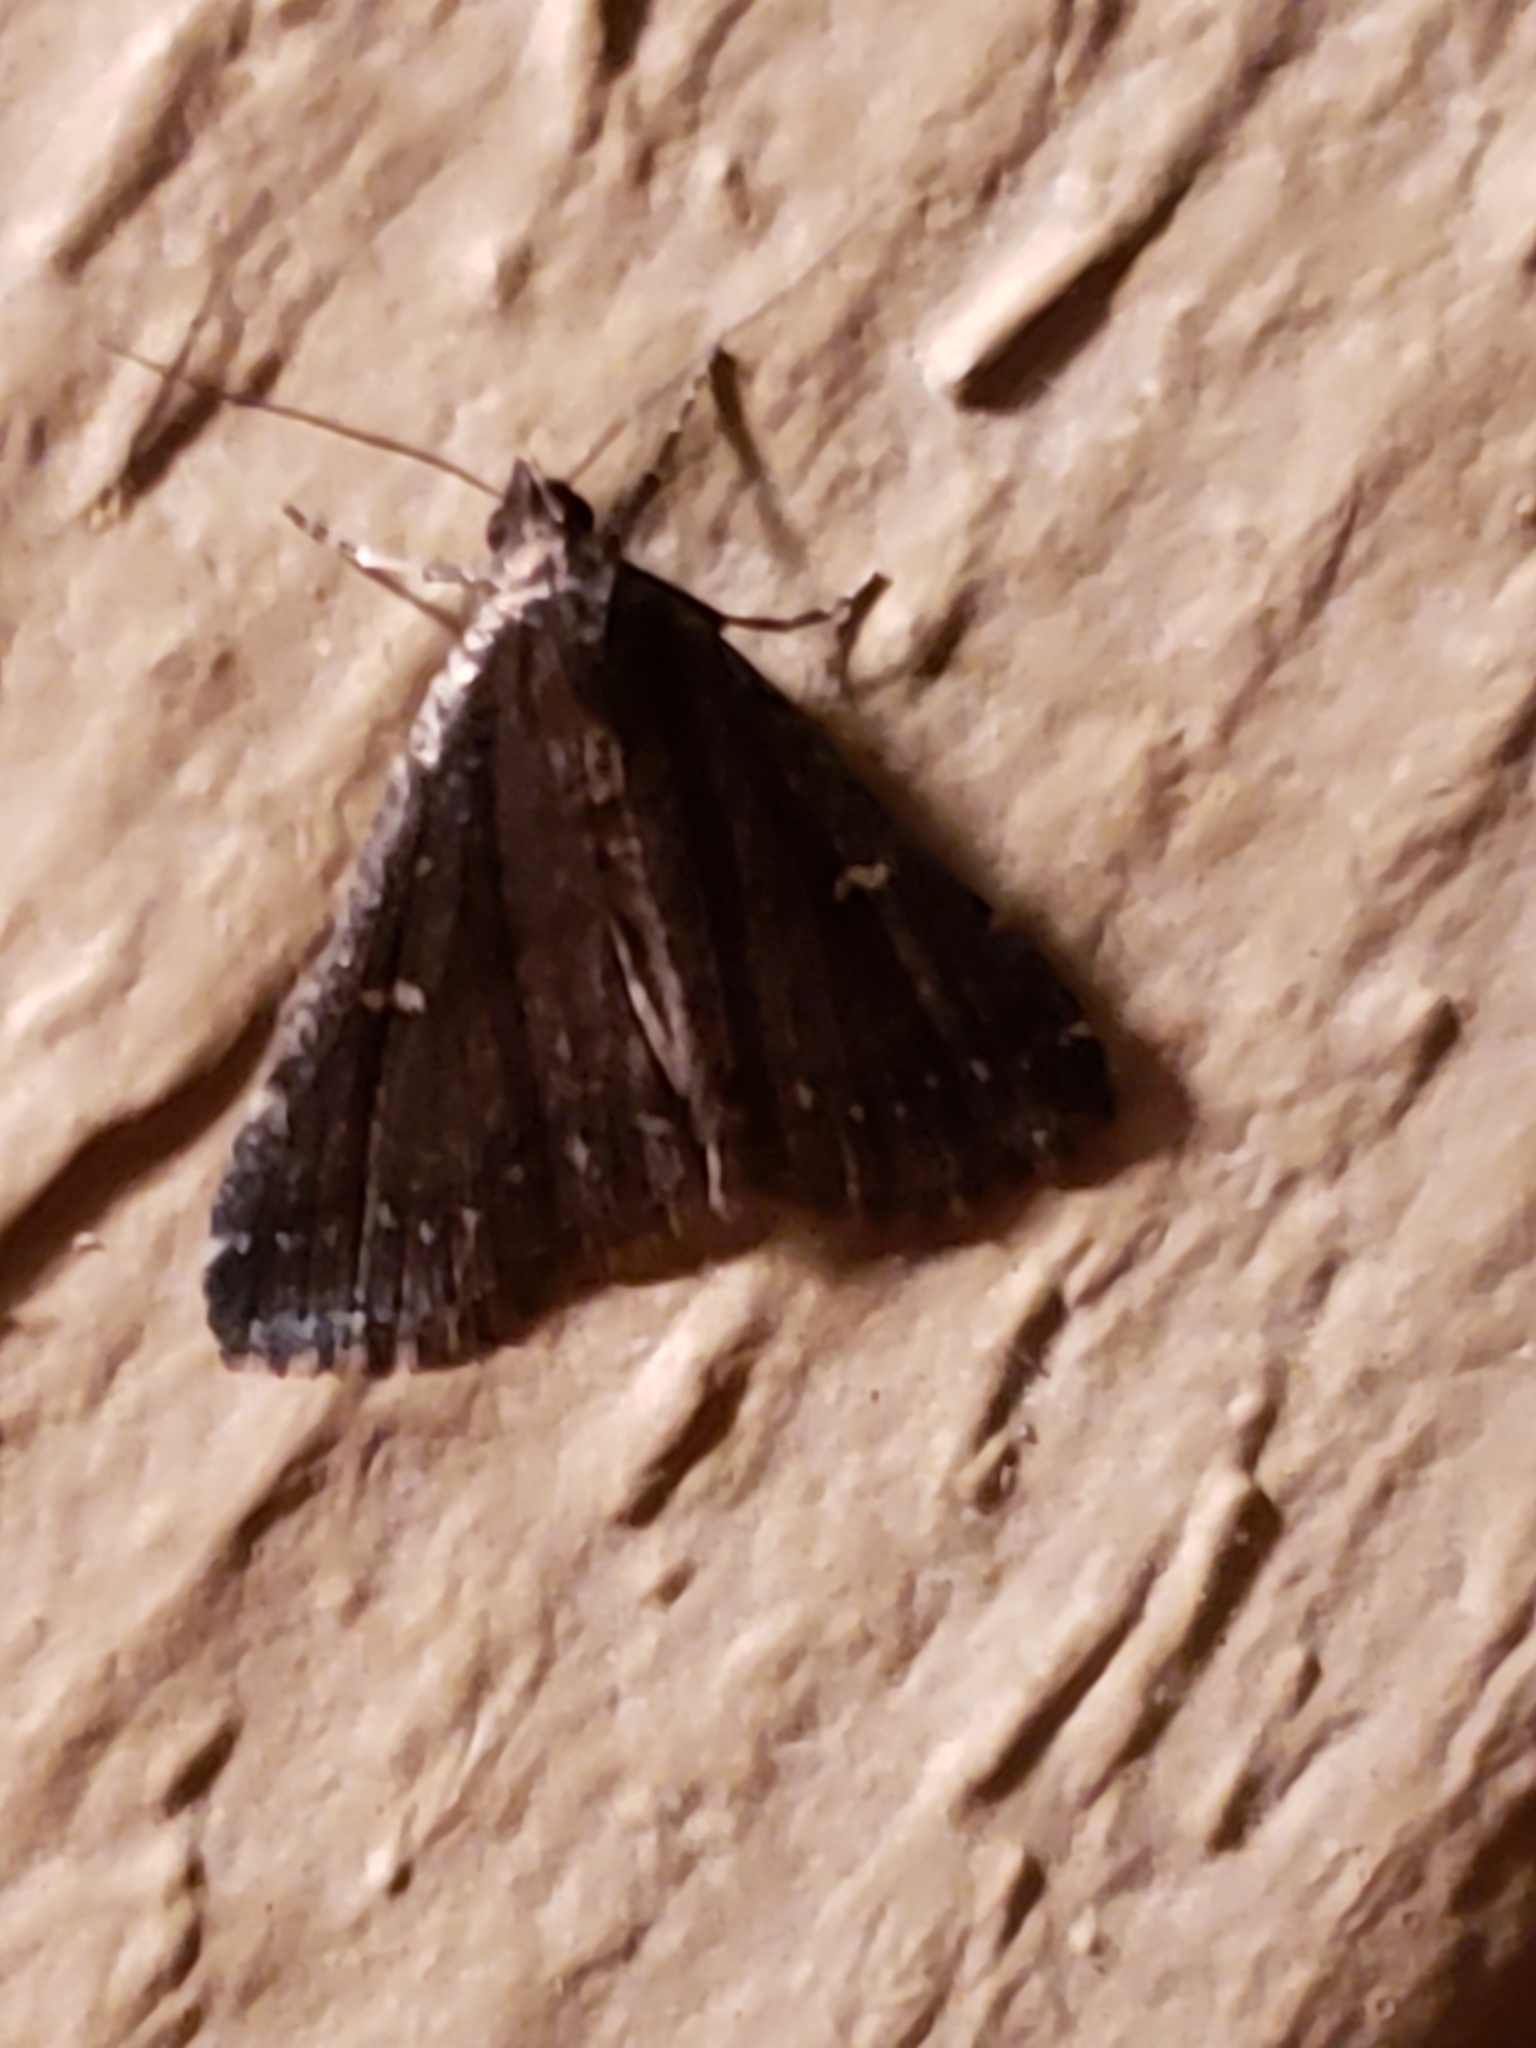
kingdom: Animalia
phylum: Arthropoda
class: Insecta
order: Lepidoptera
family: Erebidae
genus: Tetanolita
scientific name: Tetanolita mynesalis
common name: Smoky tetanolita moth
